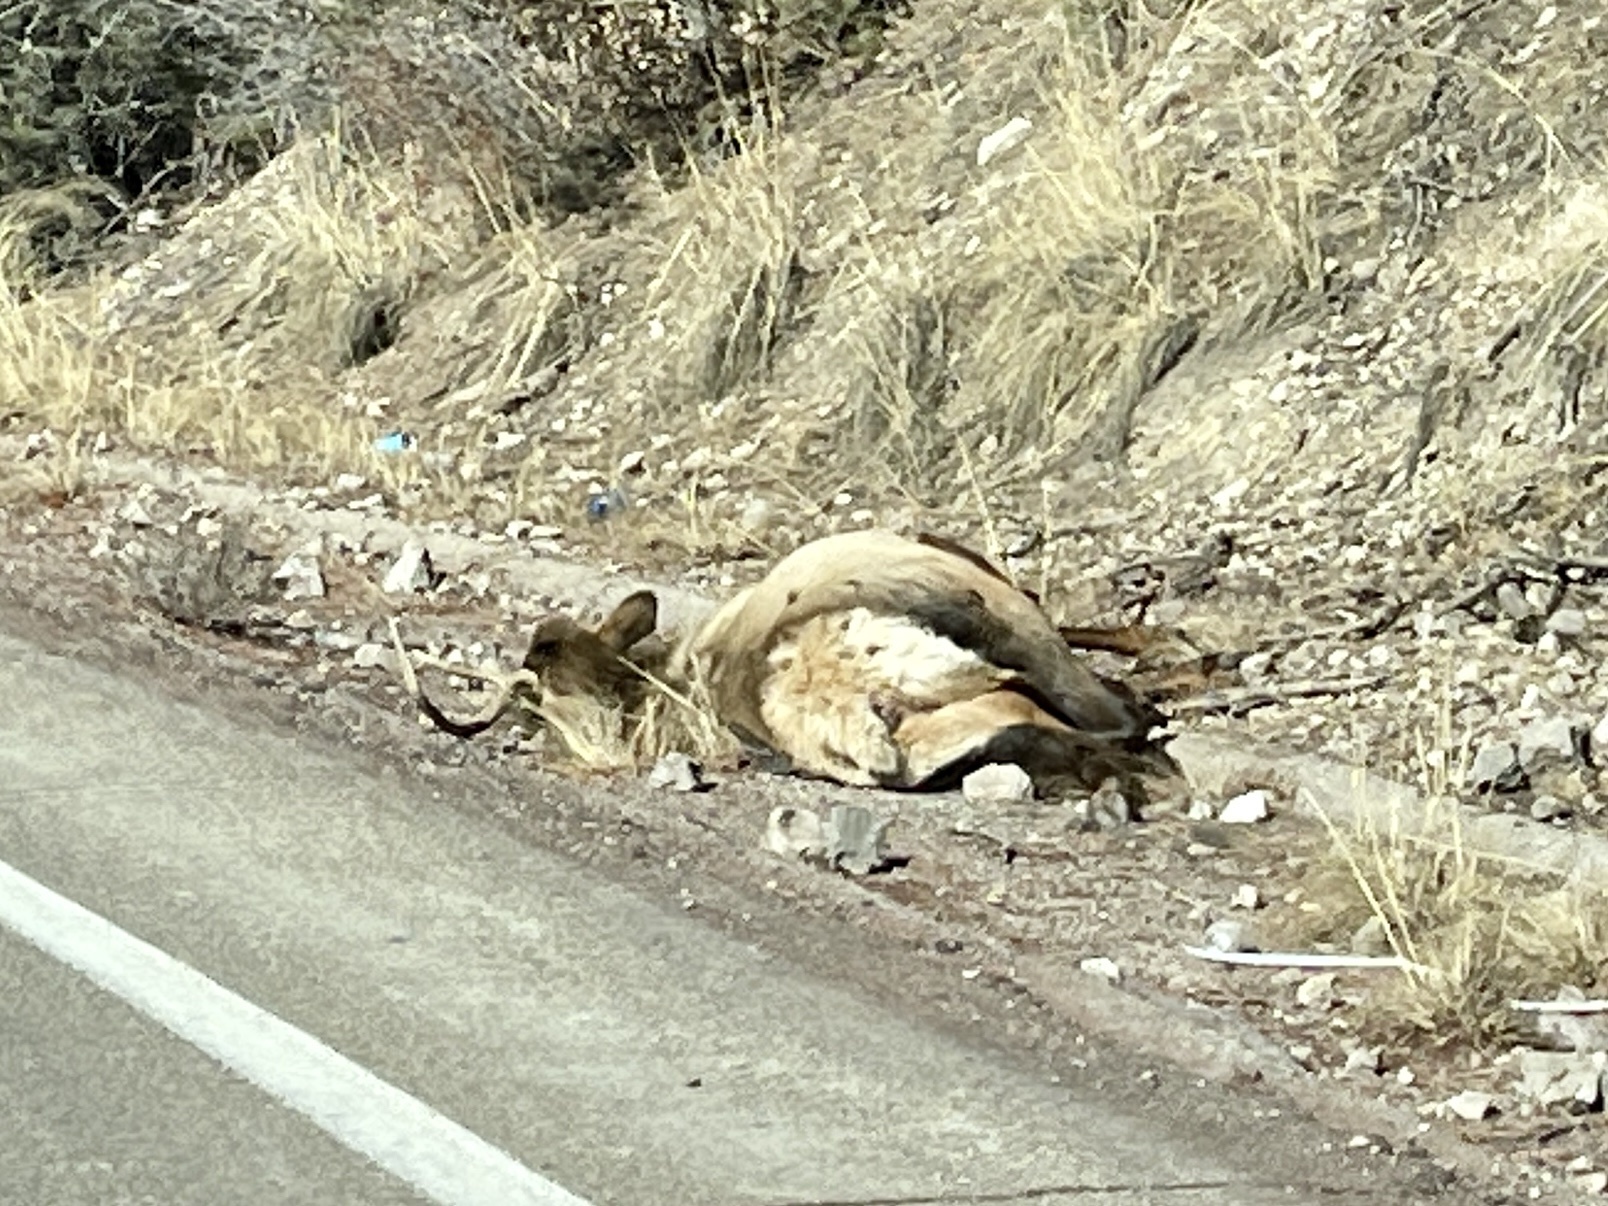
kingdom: Animalia
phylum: Chordata
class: Mammalia
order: Artiodactyla
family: Cervidae
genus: Cervus
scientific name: Cervus elaphus
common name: Red deer
